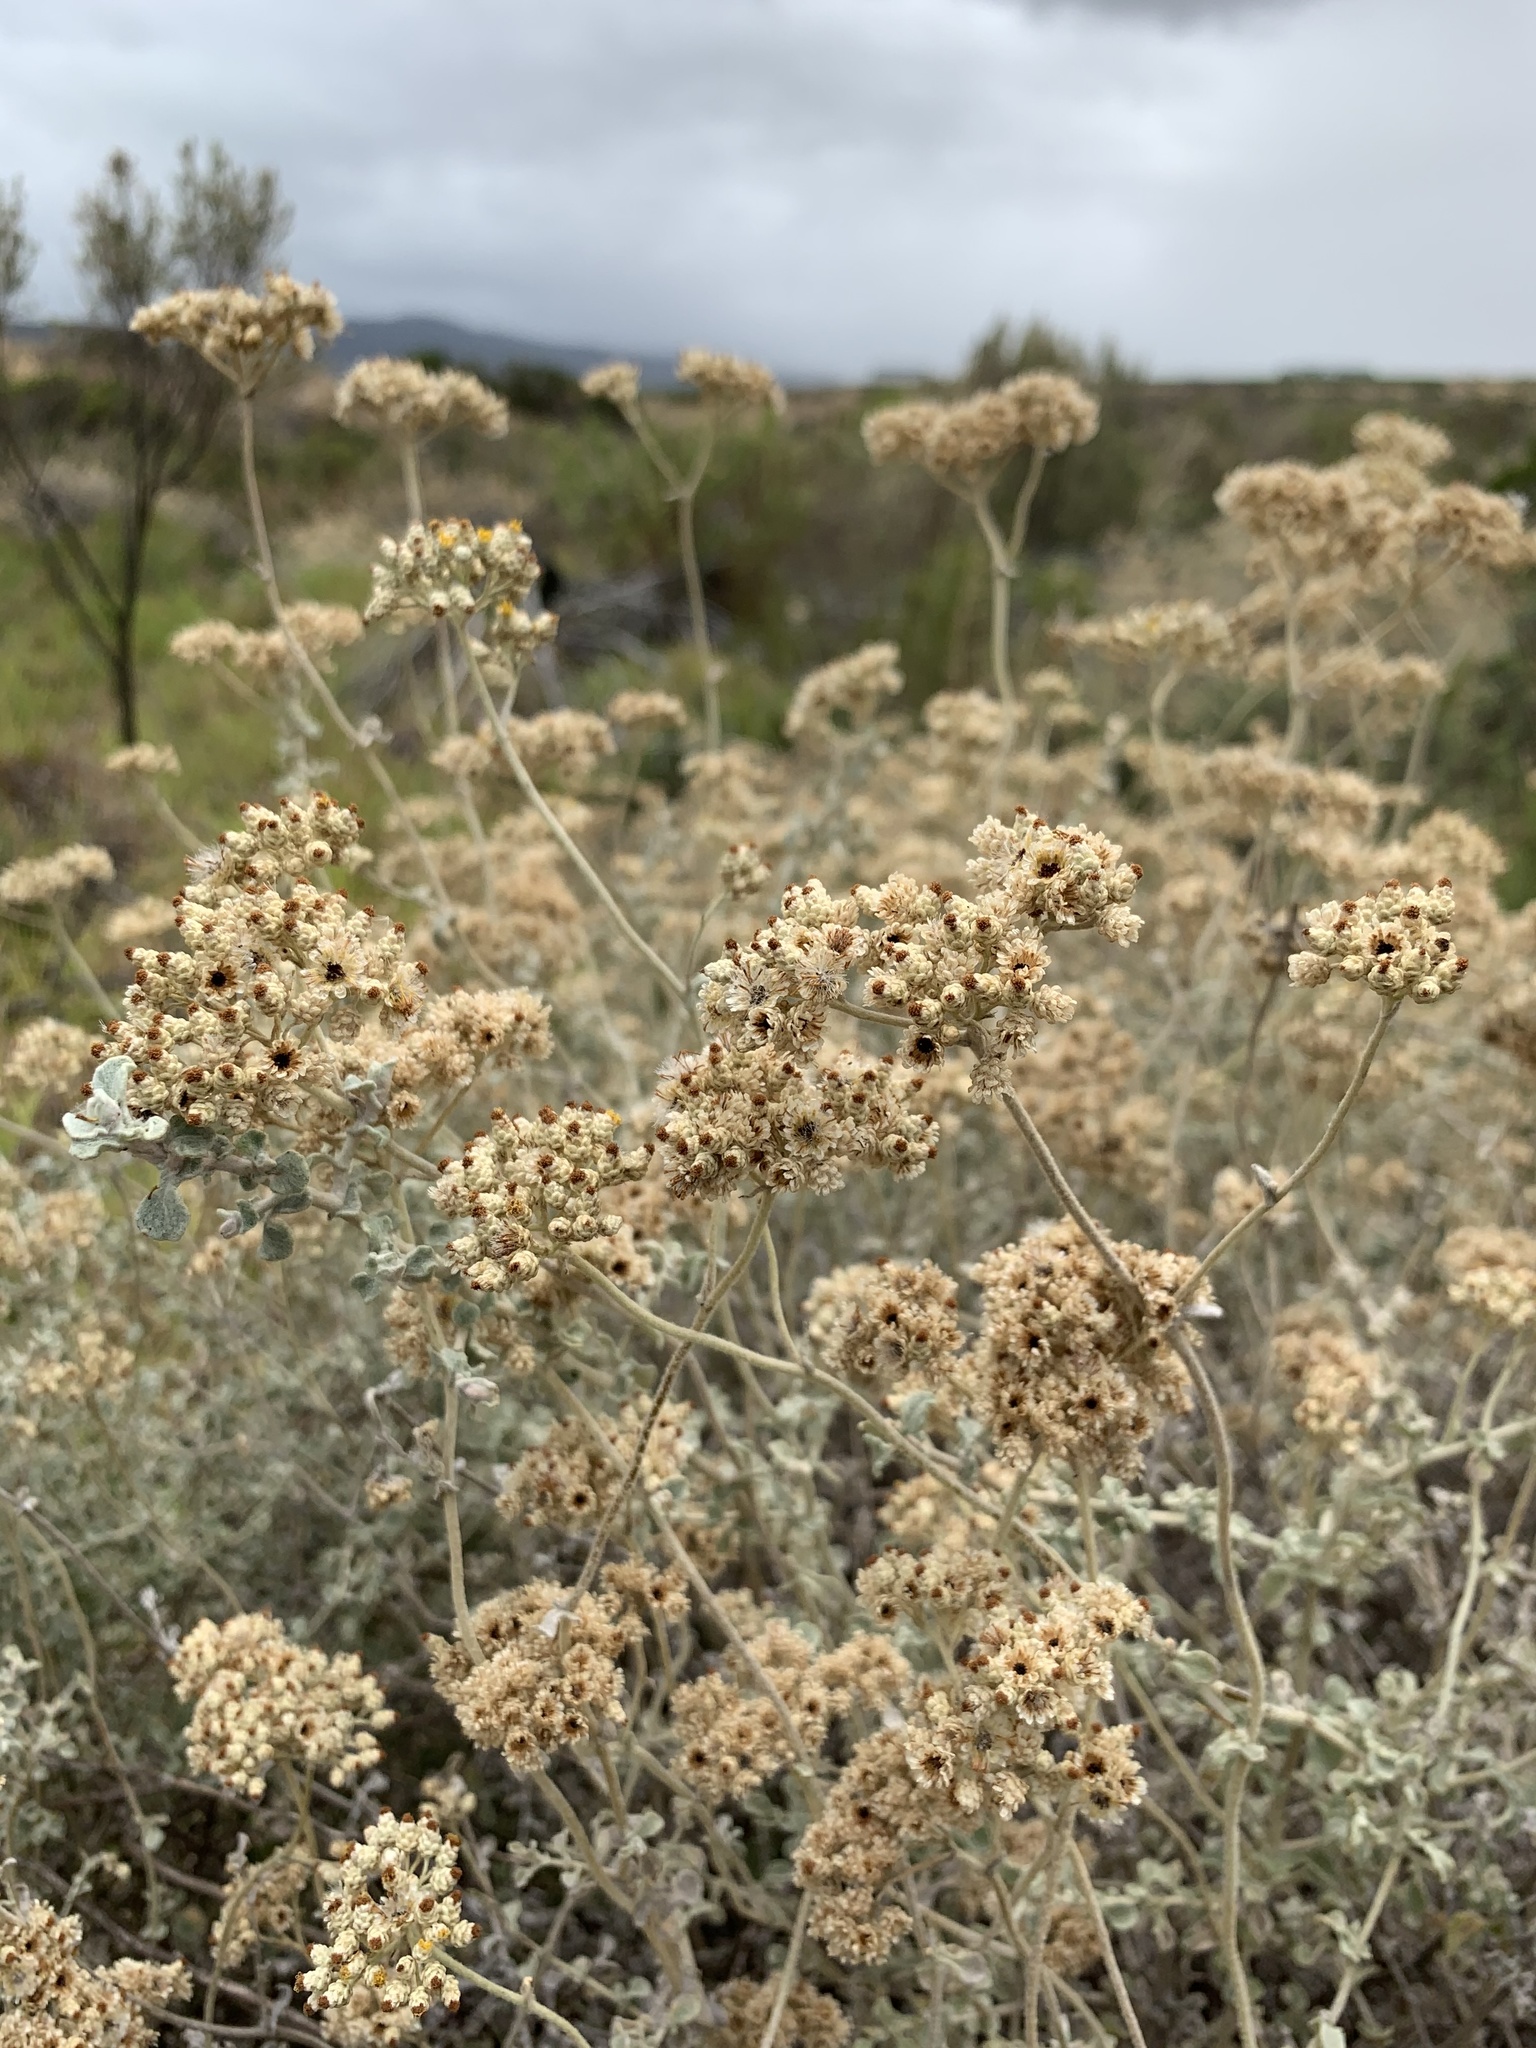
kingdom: Plantae
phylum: Tracheophyta
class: Magnoliopsida
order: Asterales
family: Asteraceae
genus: Helichrysum
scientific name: Helichrysum patulum
